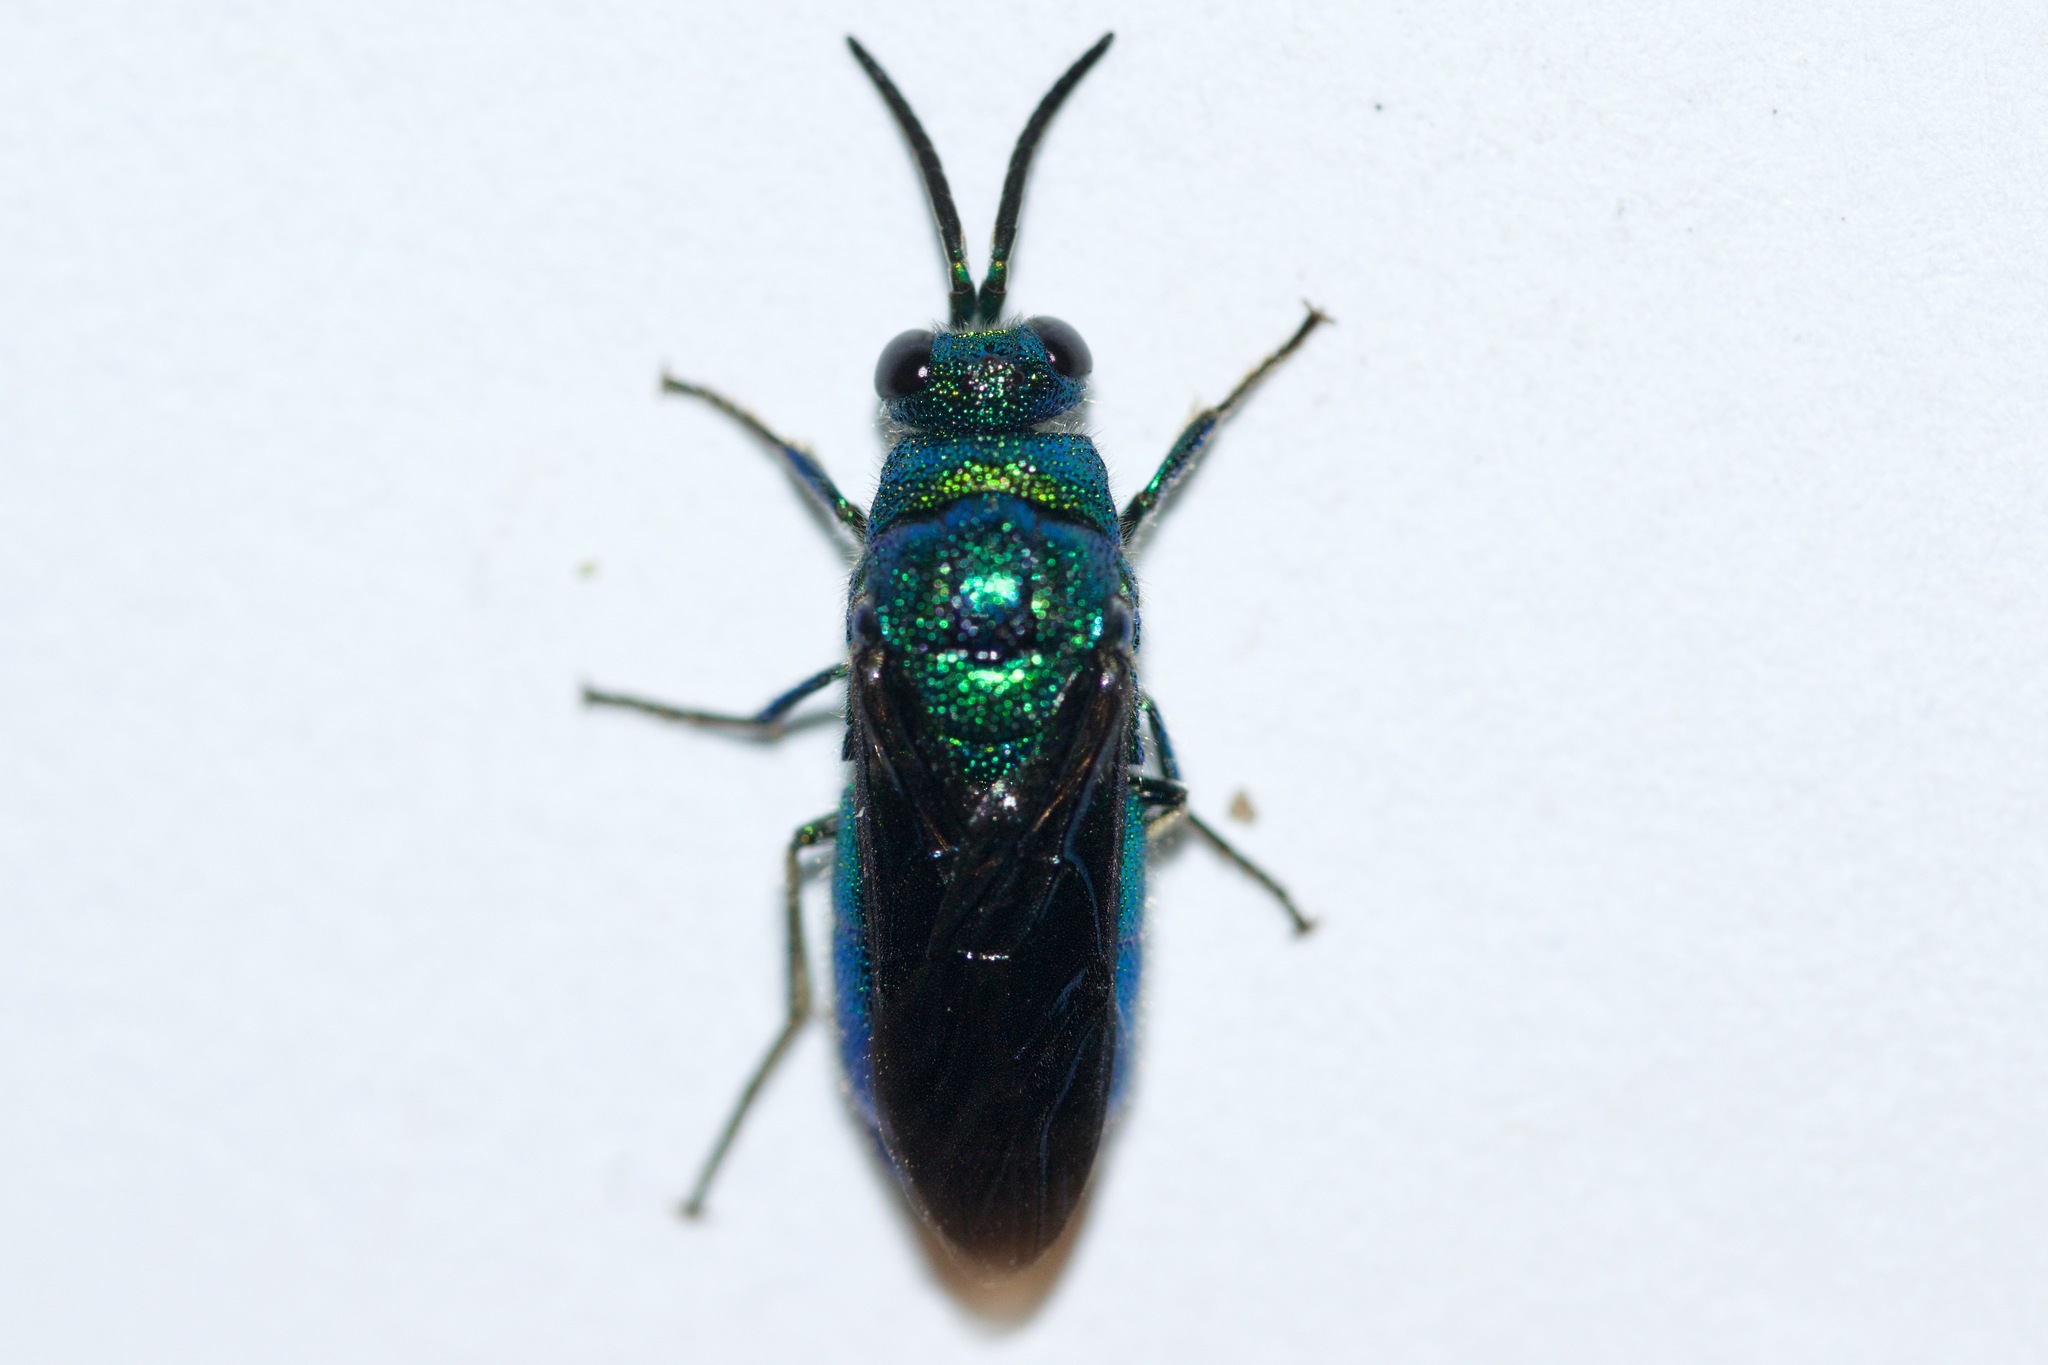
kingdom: Animalia
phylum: Arthropoda
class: Insecta
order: Hymenoptera
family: Chrysididae
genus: Chrysis
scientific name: Chrysis angolensis
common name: Cuckoo wasp
